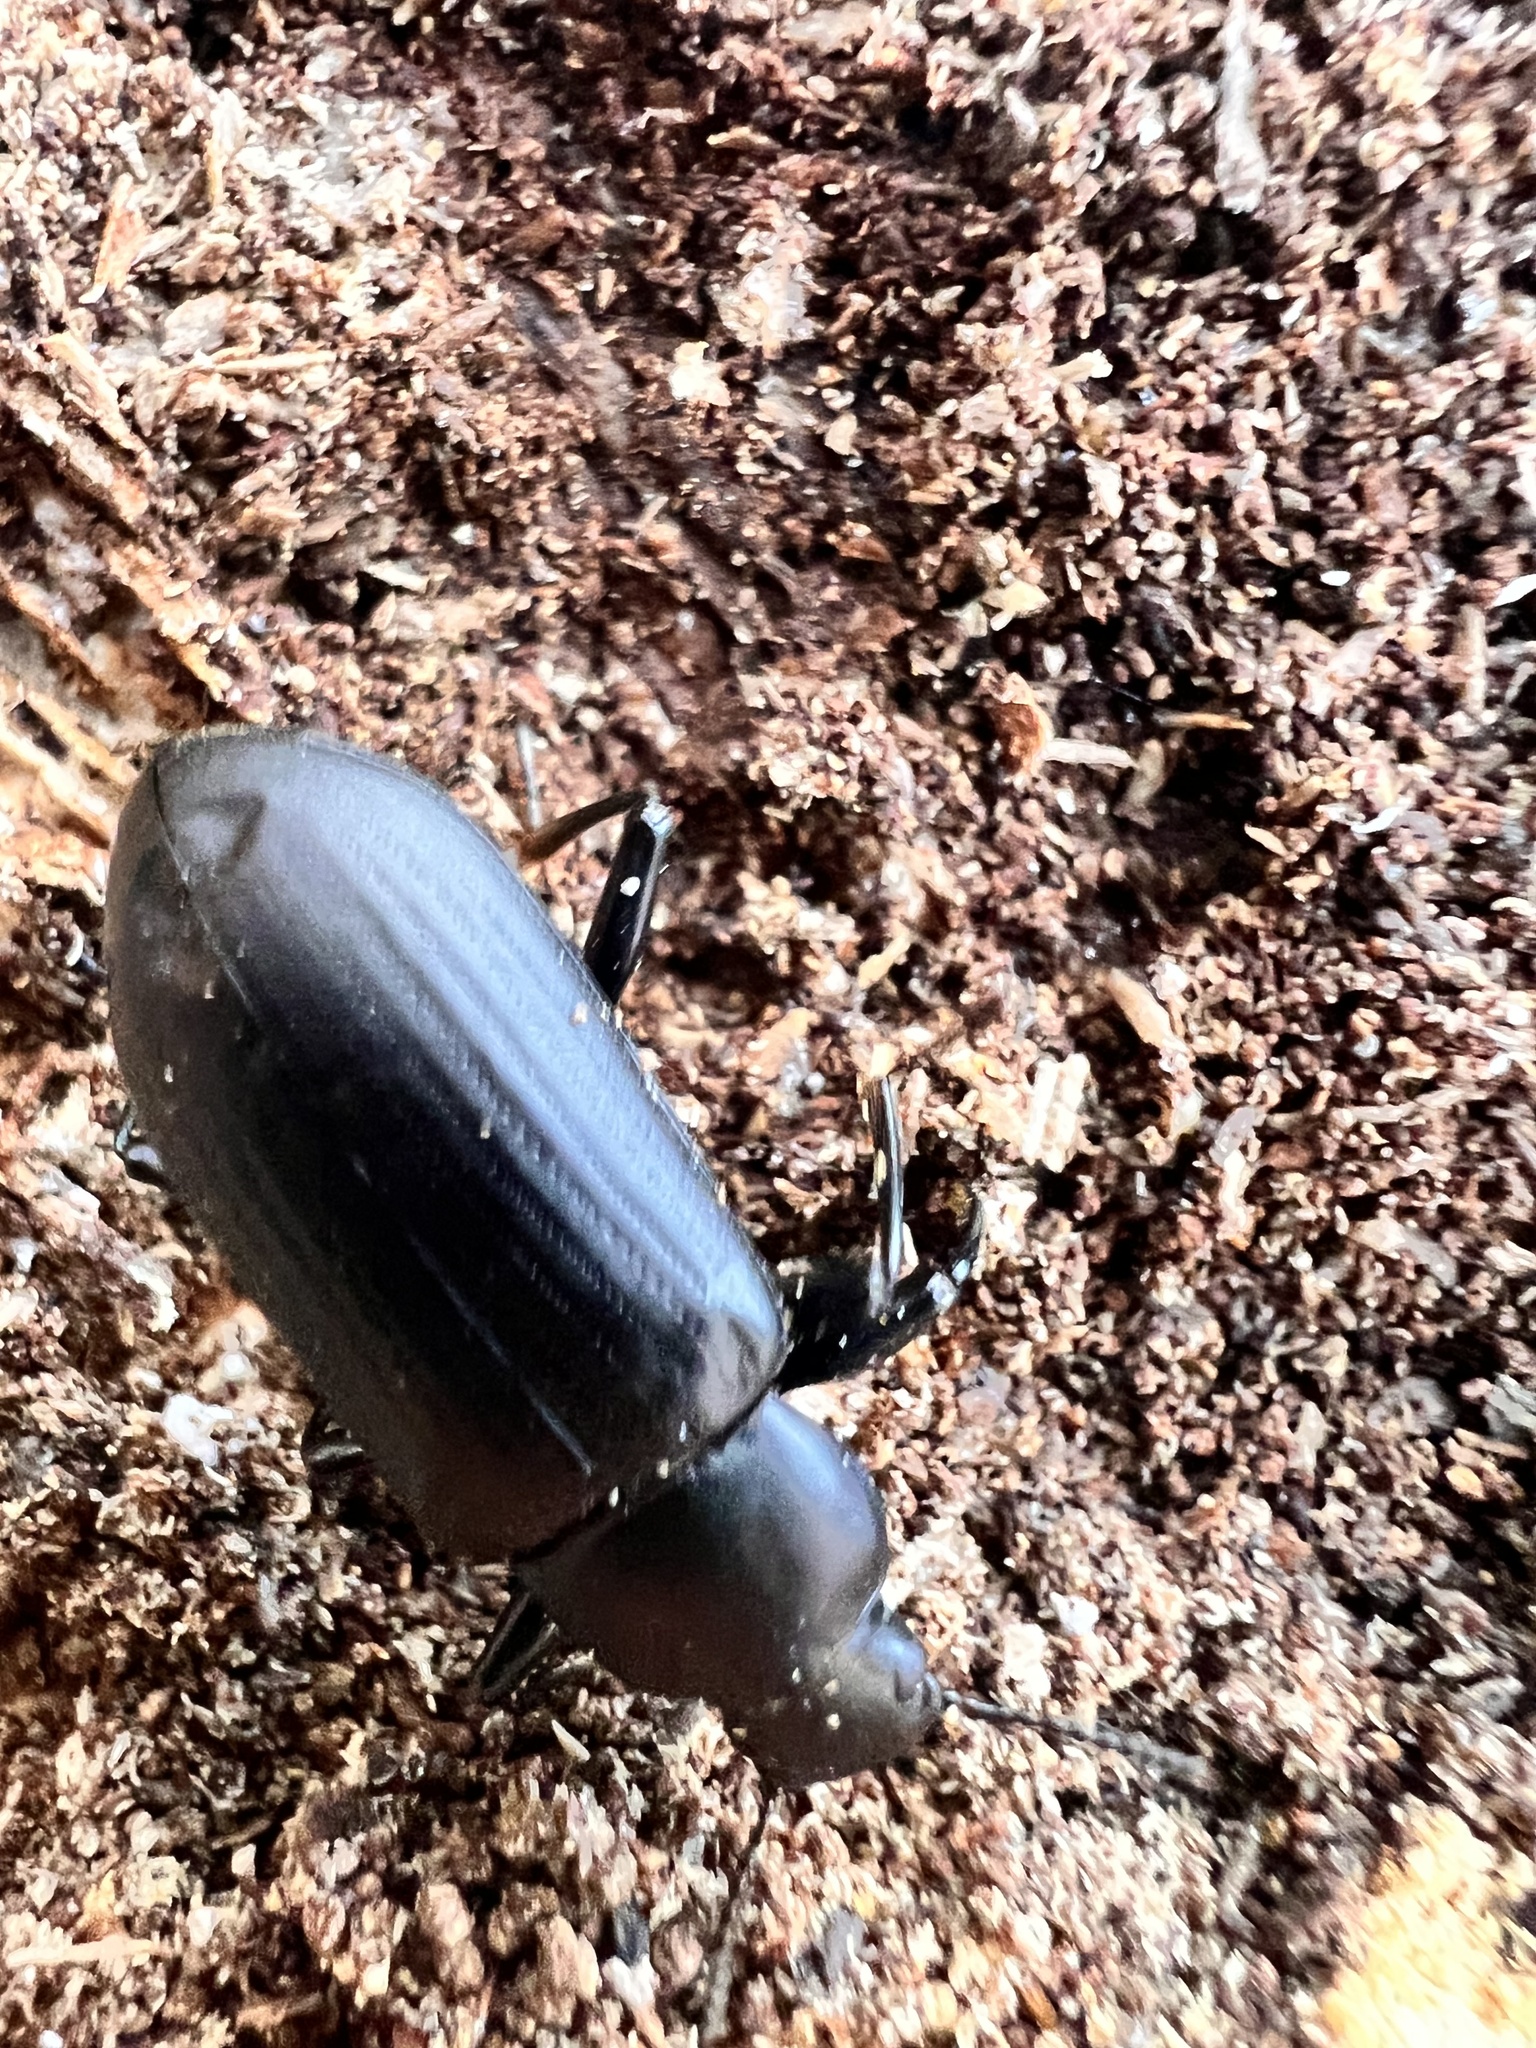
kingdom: Animalia
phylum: Arthropoda
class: Insecta
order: Coleoptera
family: Tenebrionidae
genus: Alobates
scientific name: Alobates pensylvanicus
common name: False mealworm beetle
